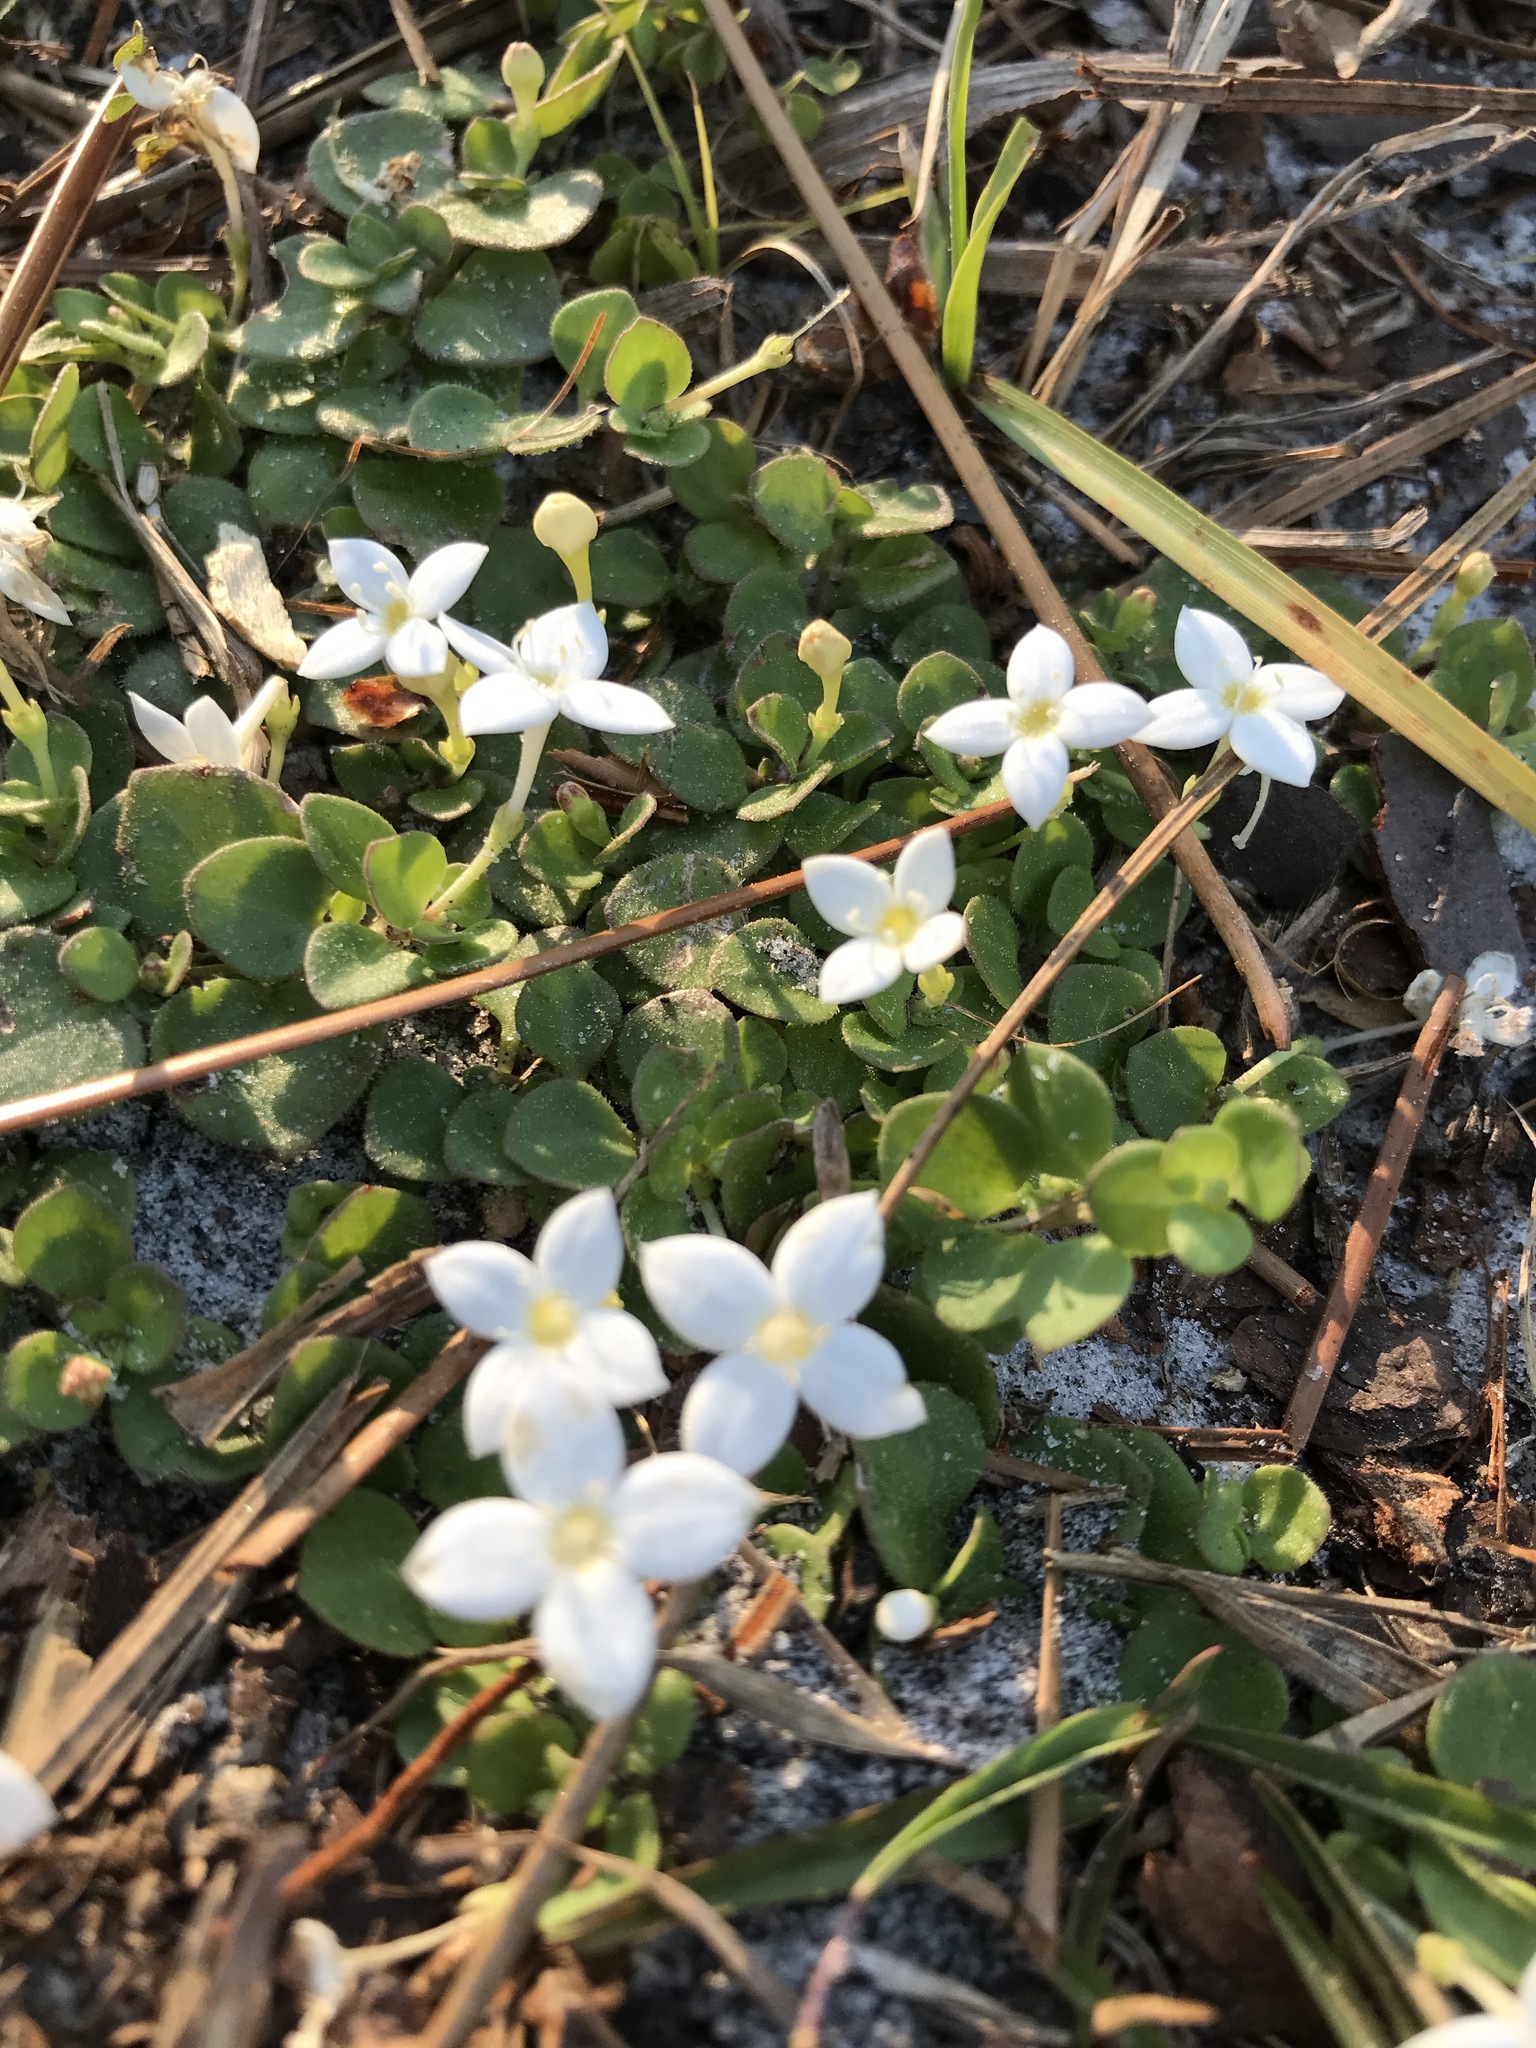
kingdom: Plantae
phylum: Tracheophyta
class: Magnoliopsida
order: Gentianales
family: Rubiaceae
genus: Houstonia
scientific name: Houstonia procumbens
